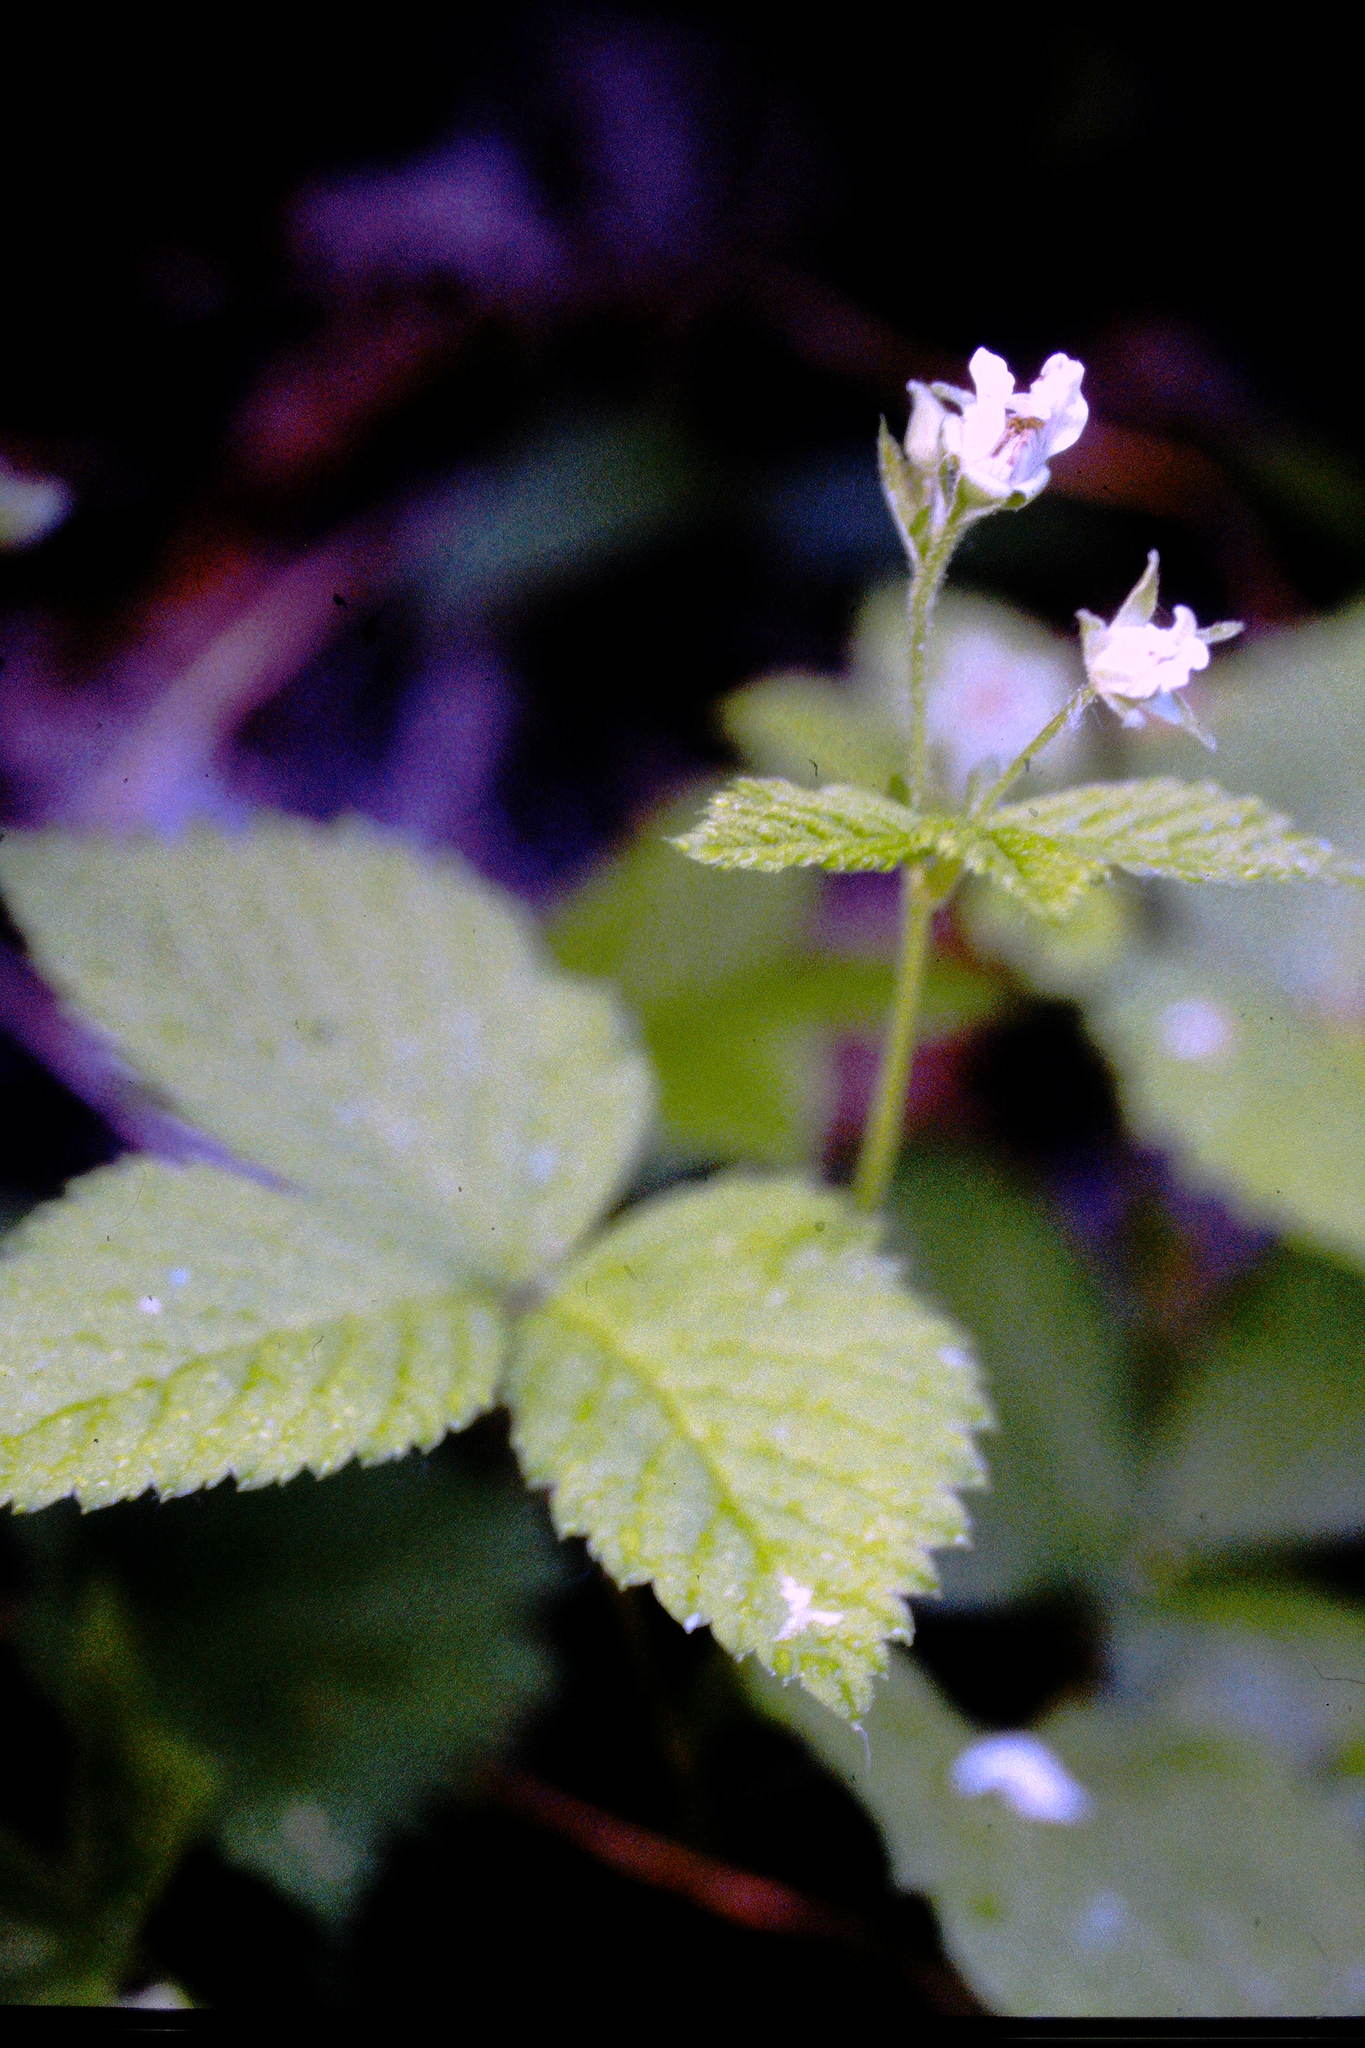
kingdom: Plantae
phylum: Tracheophyta
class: Magnoliopsida
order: Rosales
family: Rosaceae
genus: Rubus
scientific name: Rubus pubescens
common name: Dwarf raspberry
